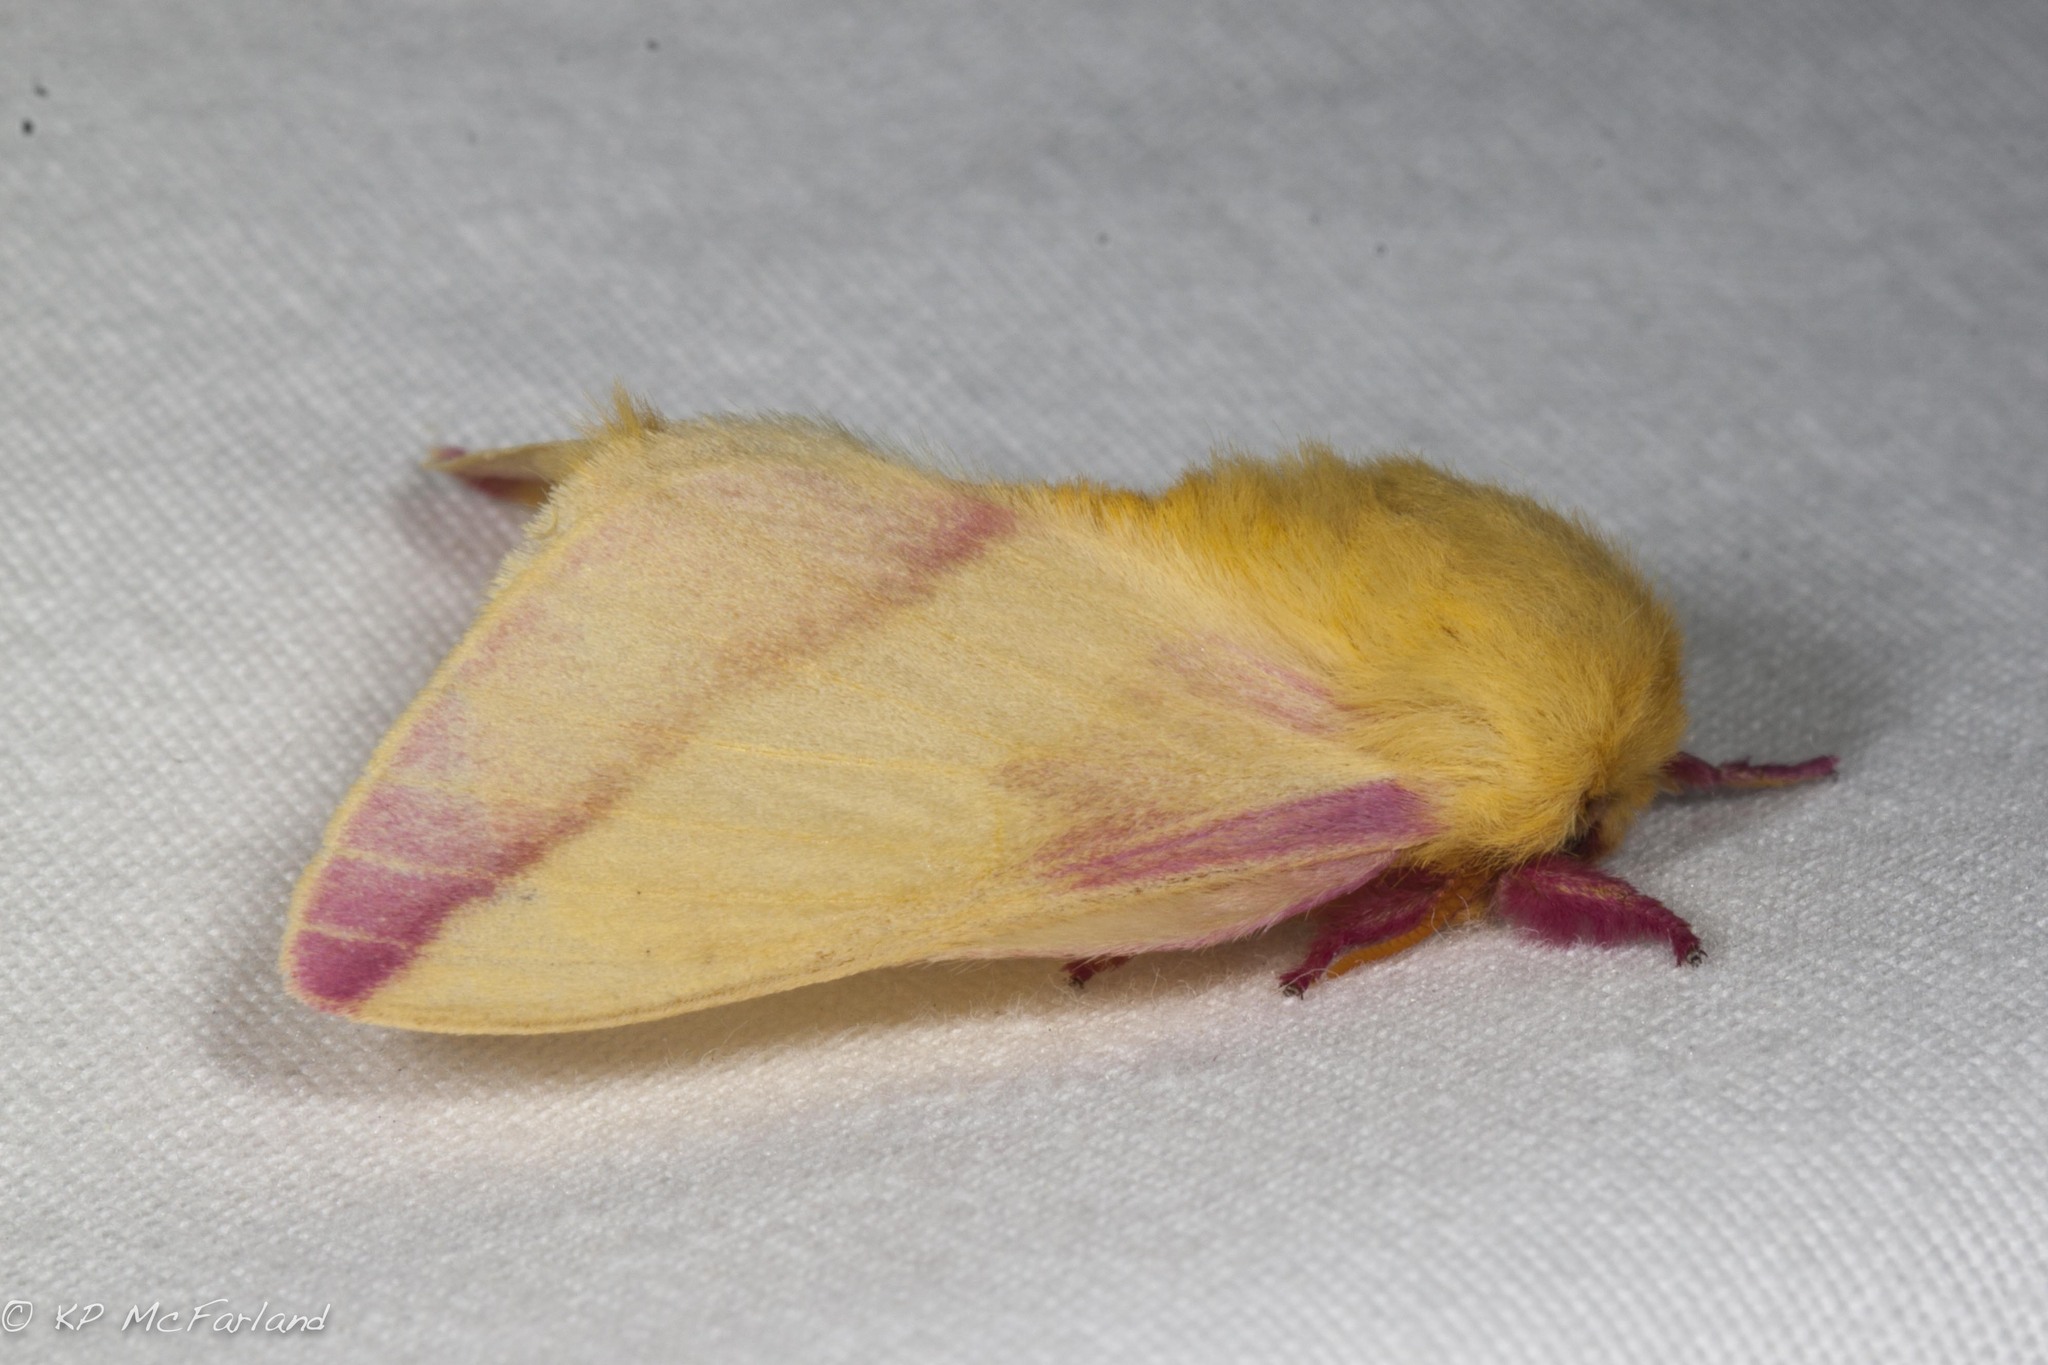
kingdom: Animalia
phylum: Arthropoda
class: Insecta
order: Lepidoptera
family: Saturniidae
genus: Dryocampa
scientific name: Dryocampa rubicunda
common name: Rosy maple moth
